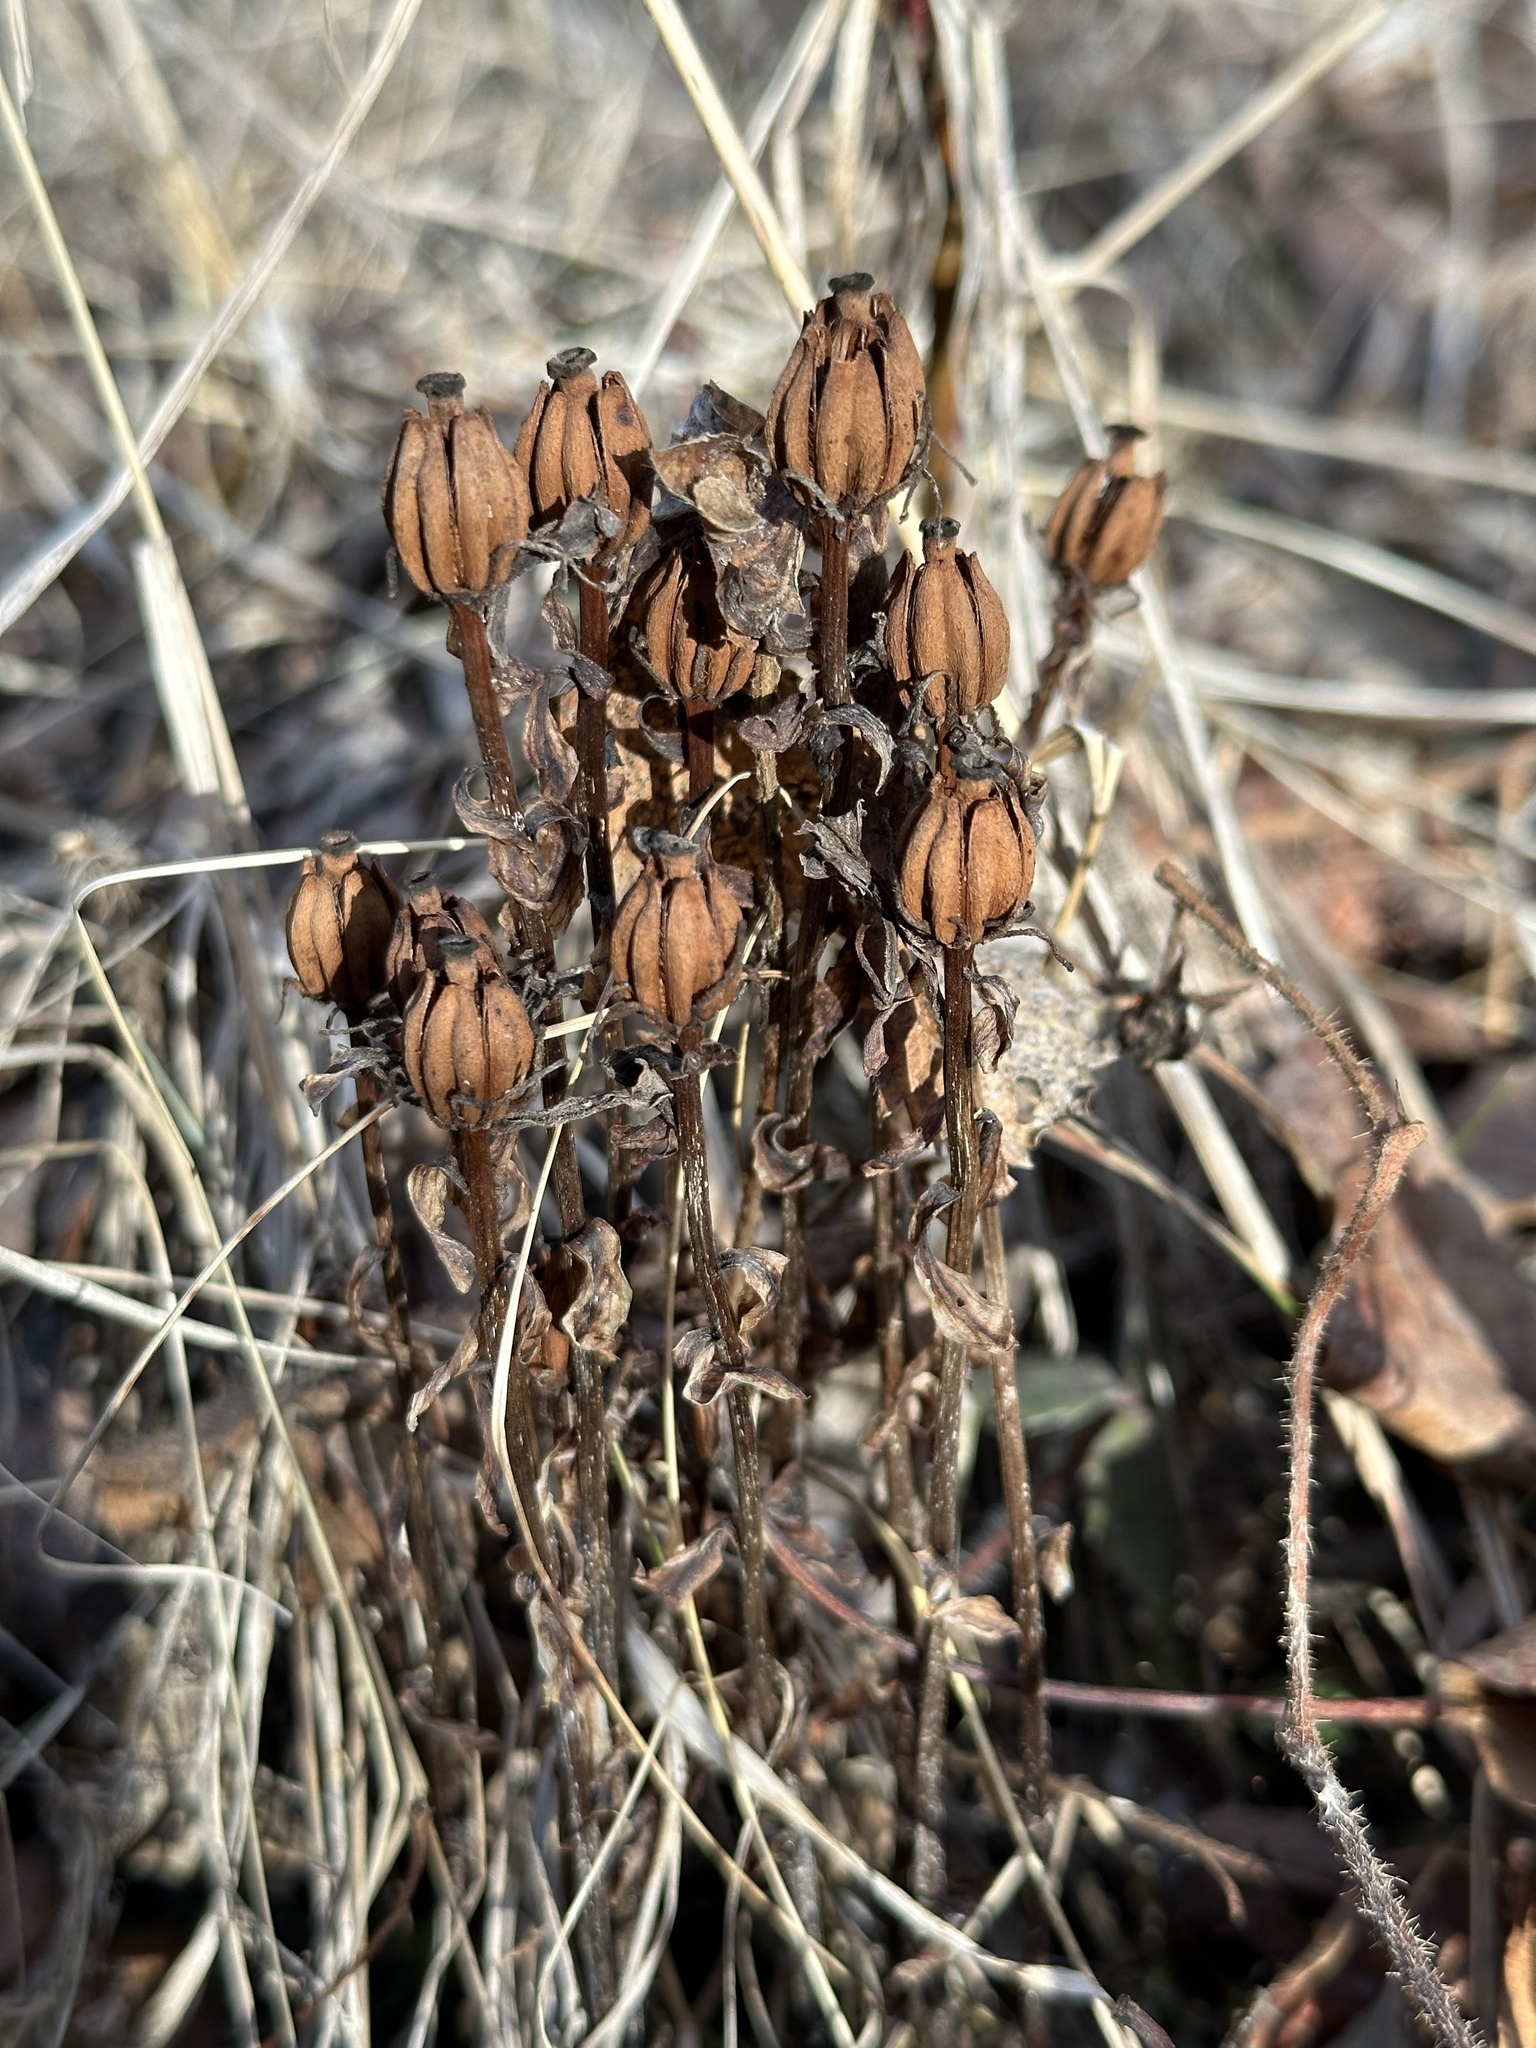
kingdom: Plantae
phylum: Tracheophyta
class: Magnoliopsida
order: Ericales
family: Ericaceae
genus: Monotropa
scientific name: Monotropa uniflora
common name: Convulsion root
